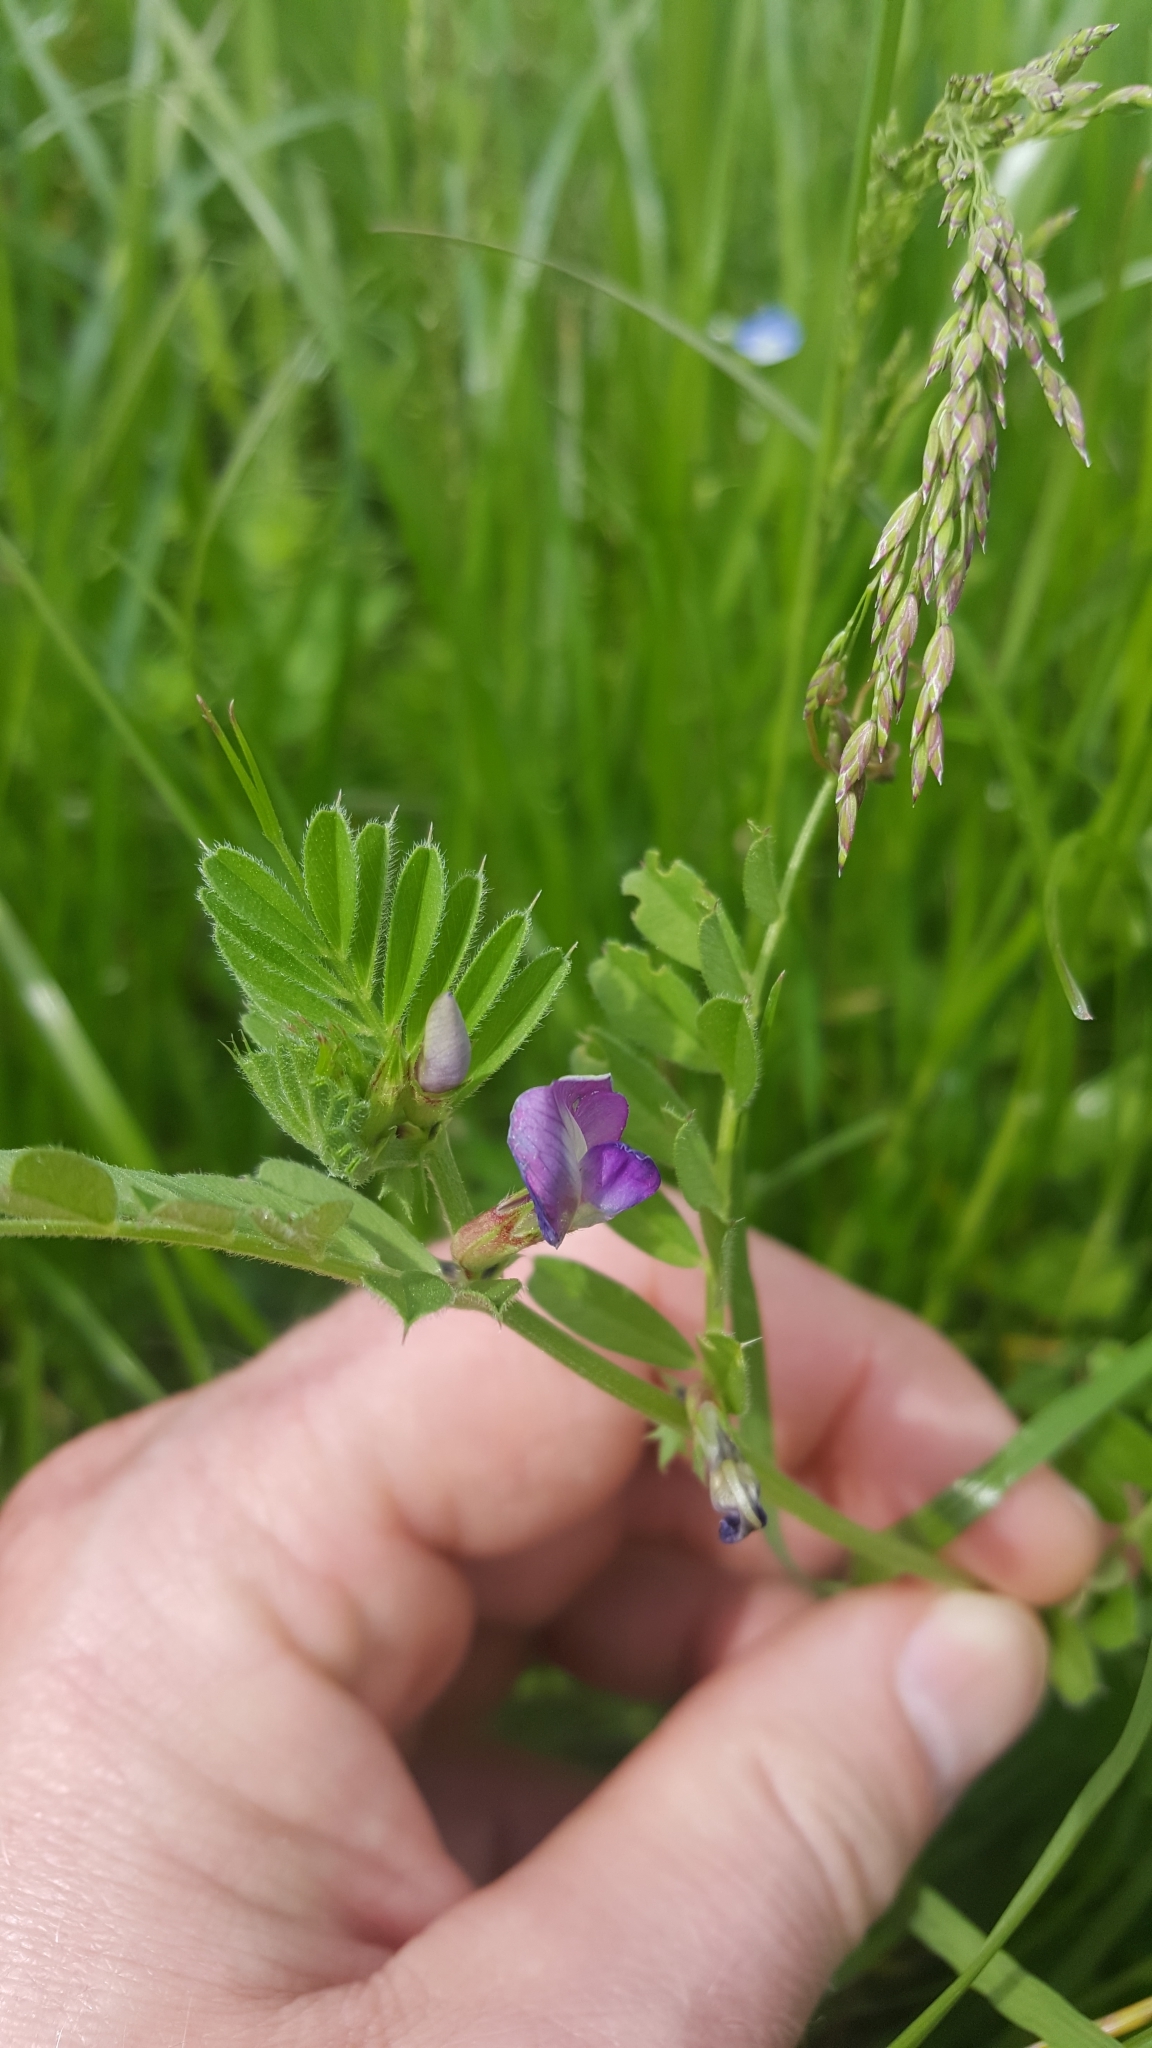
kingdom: Plantae
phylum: Tracheophyta
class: Magnoliopsida
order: Fabales
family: Fabaceae
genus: Vicia
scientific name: Vicia sativa
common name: Garden vetch
